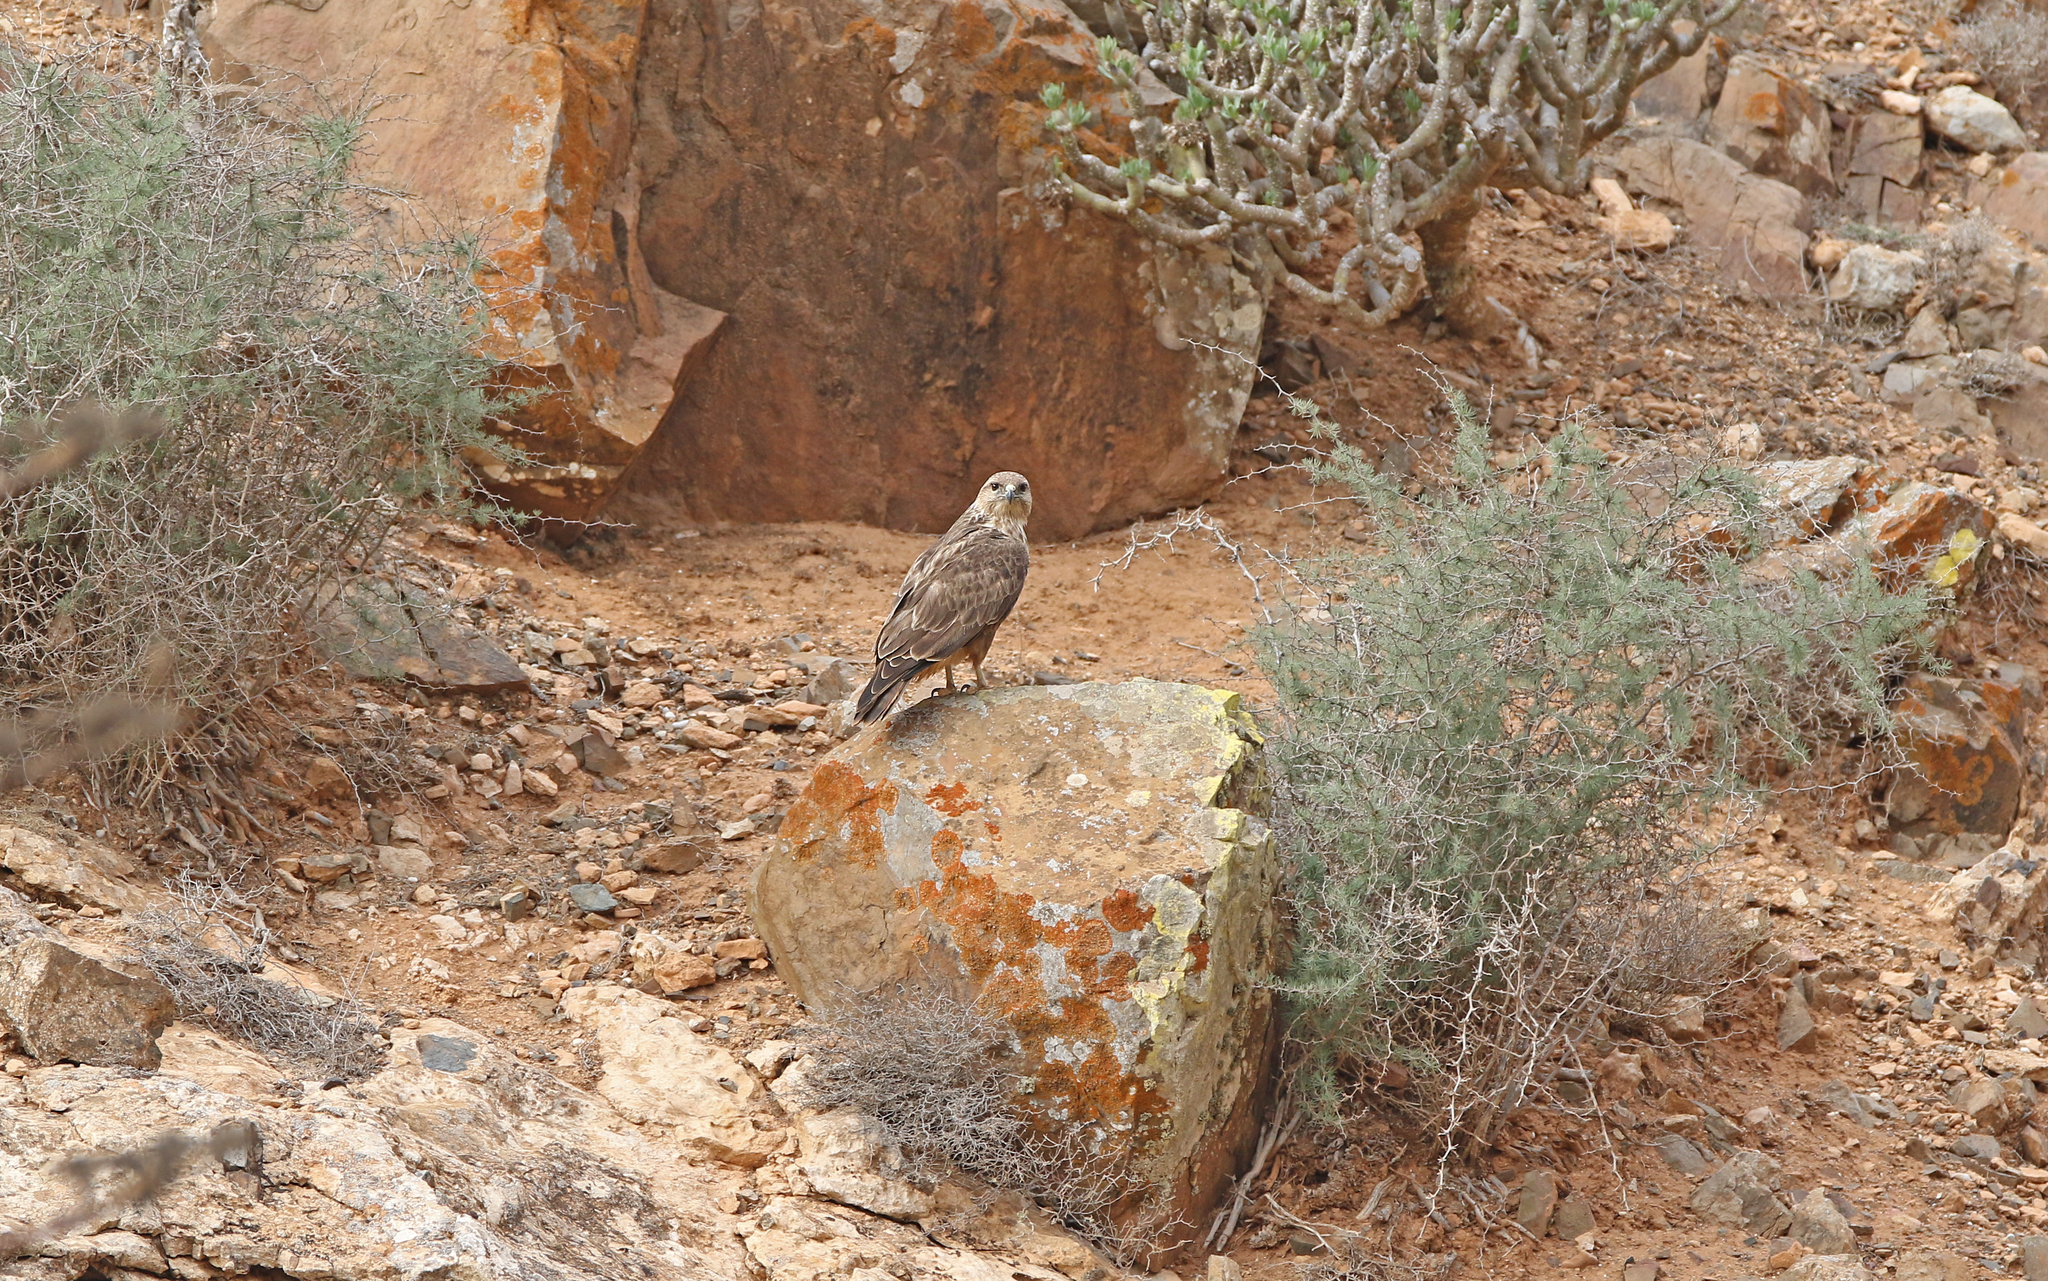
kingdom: Animalia
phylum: Chordata
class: Aves
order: Accipitriformes
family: Accipitridae
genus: Buteo
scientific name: Buteo buteo
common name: Common buzzard
